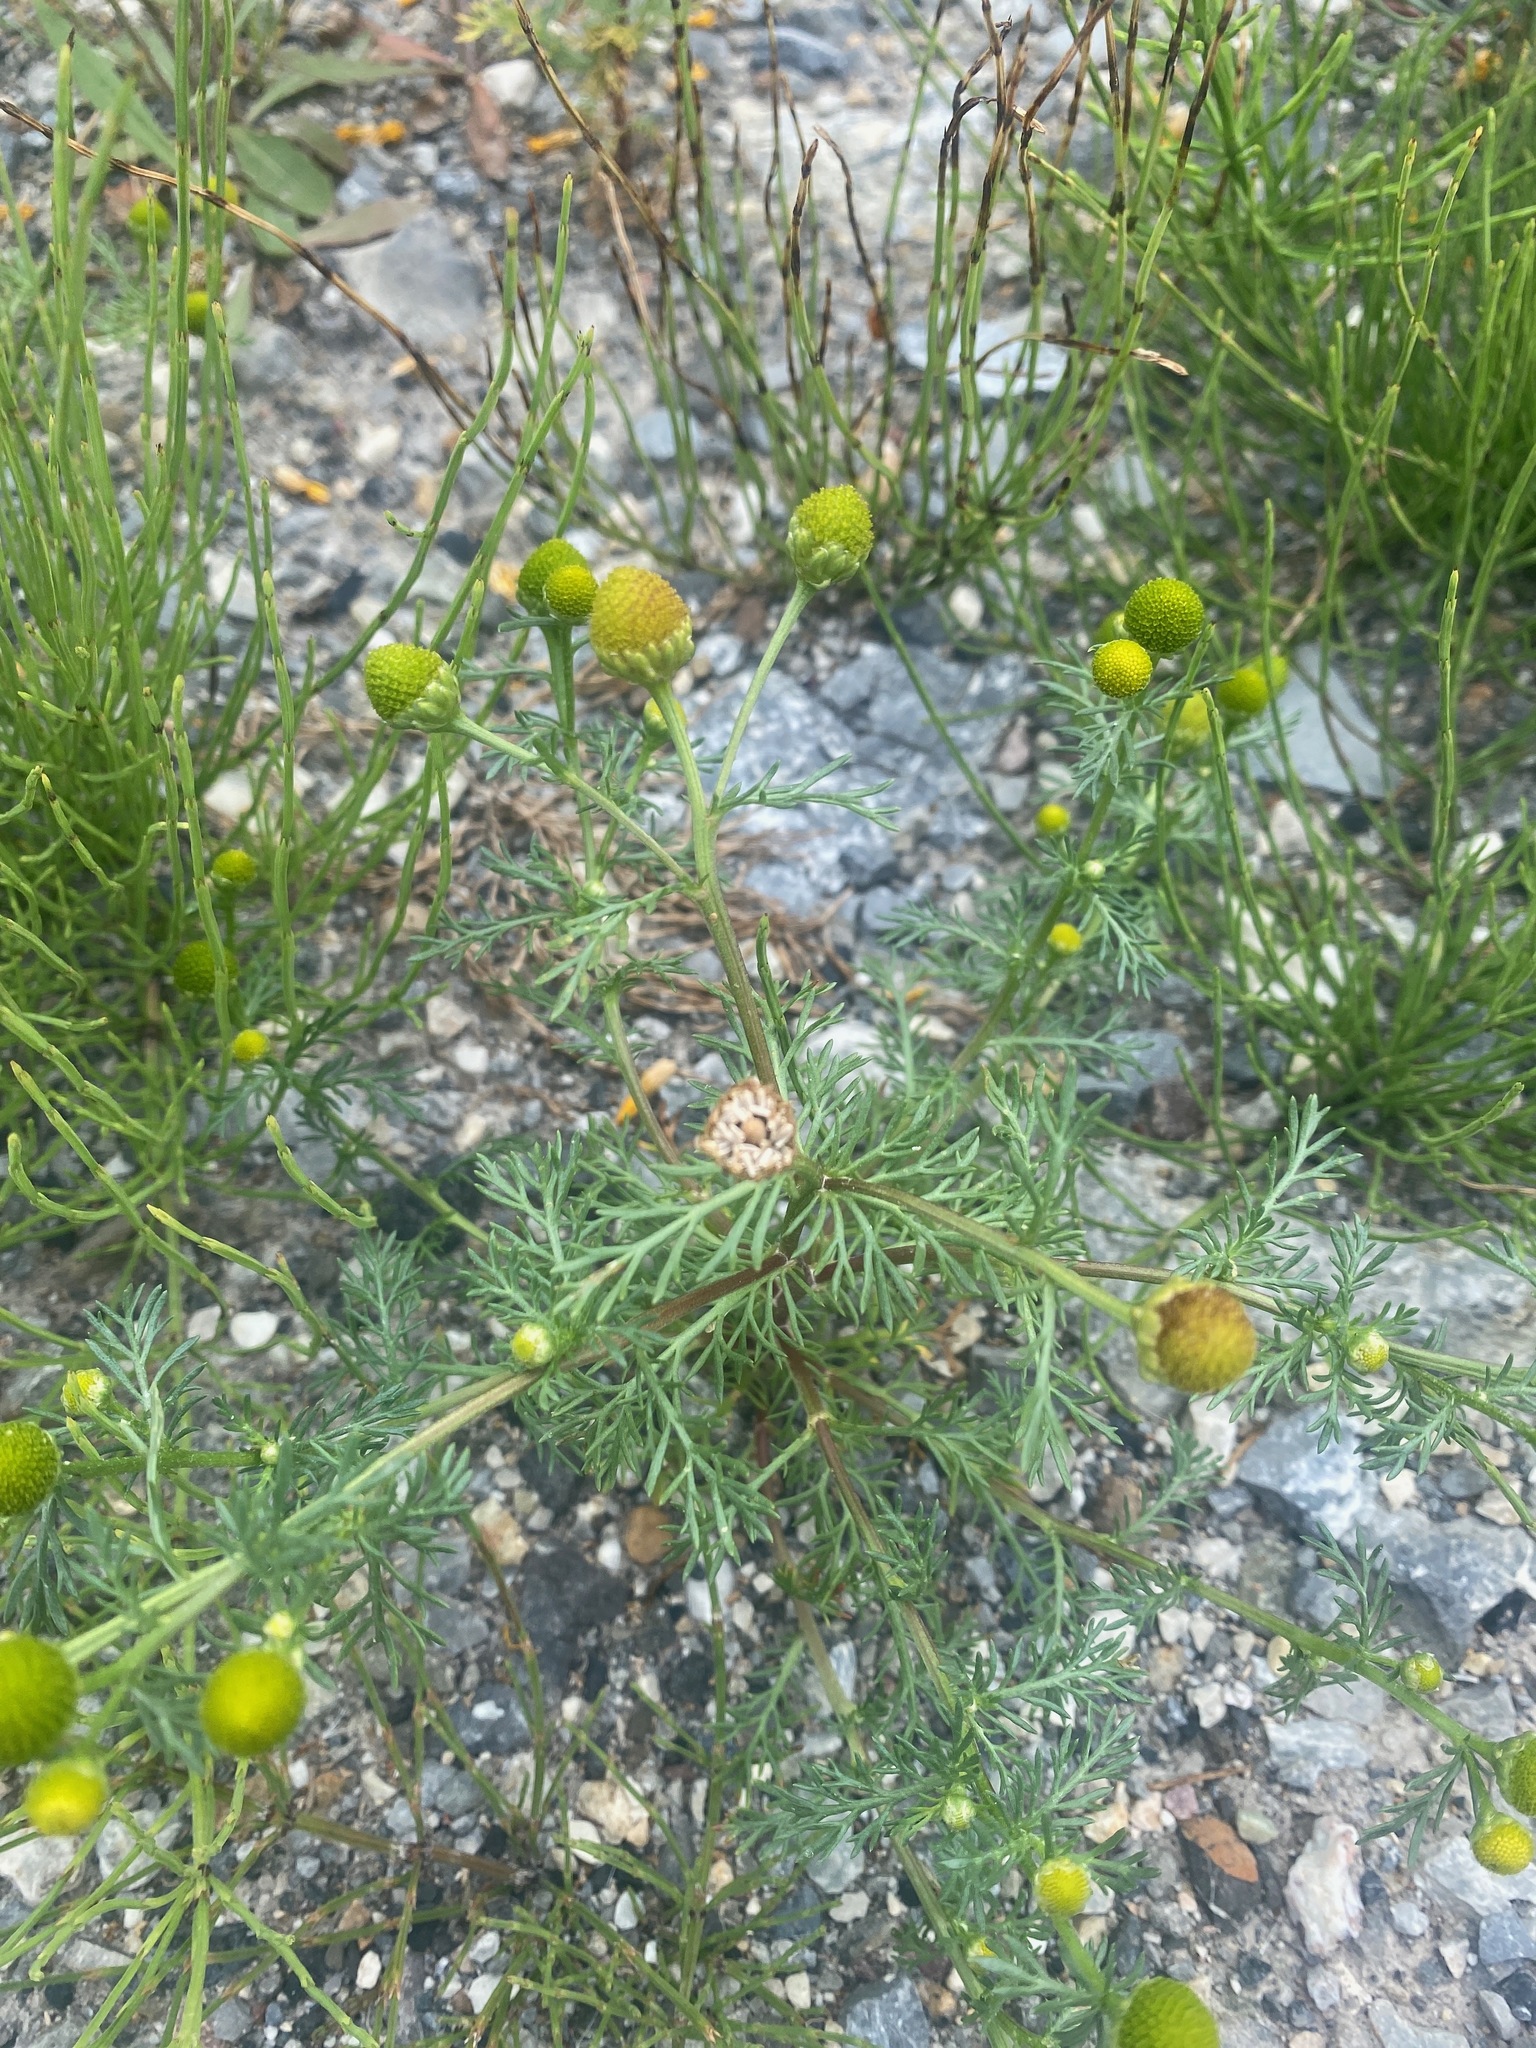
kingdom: Plantae
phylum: Tracheophyta
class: Magnoliopsida
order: Asterales
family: Asteraceae
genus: Matricaria
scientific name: Matricaria discoidea
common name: Disc mayweed
